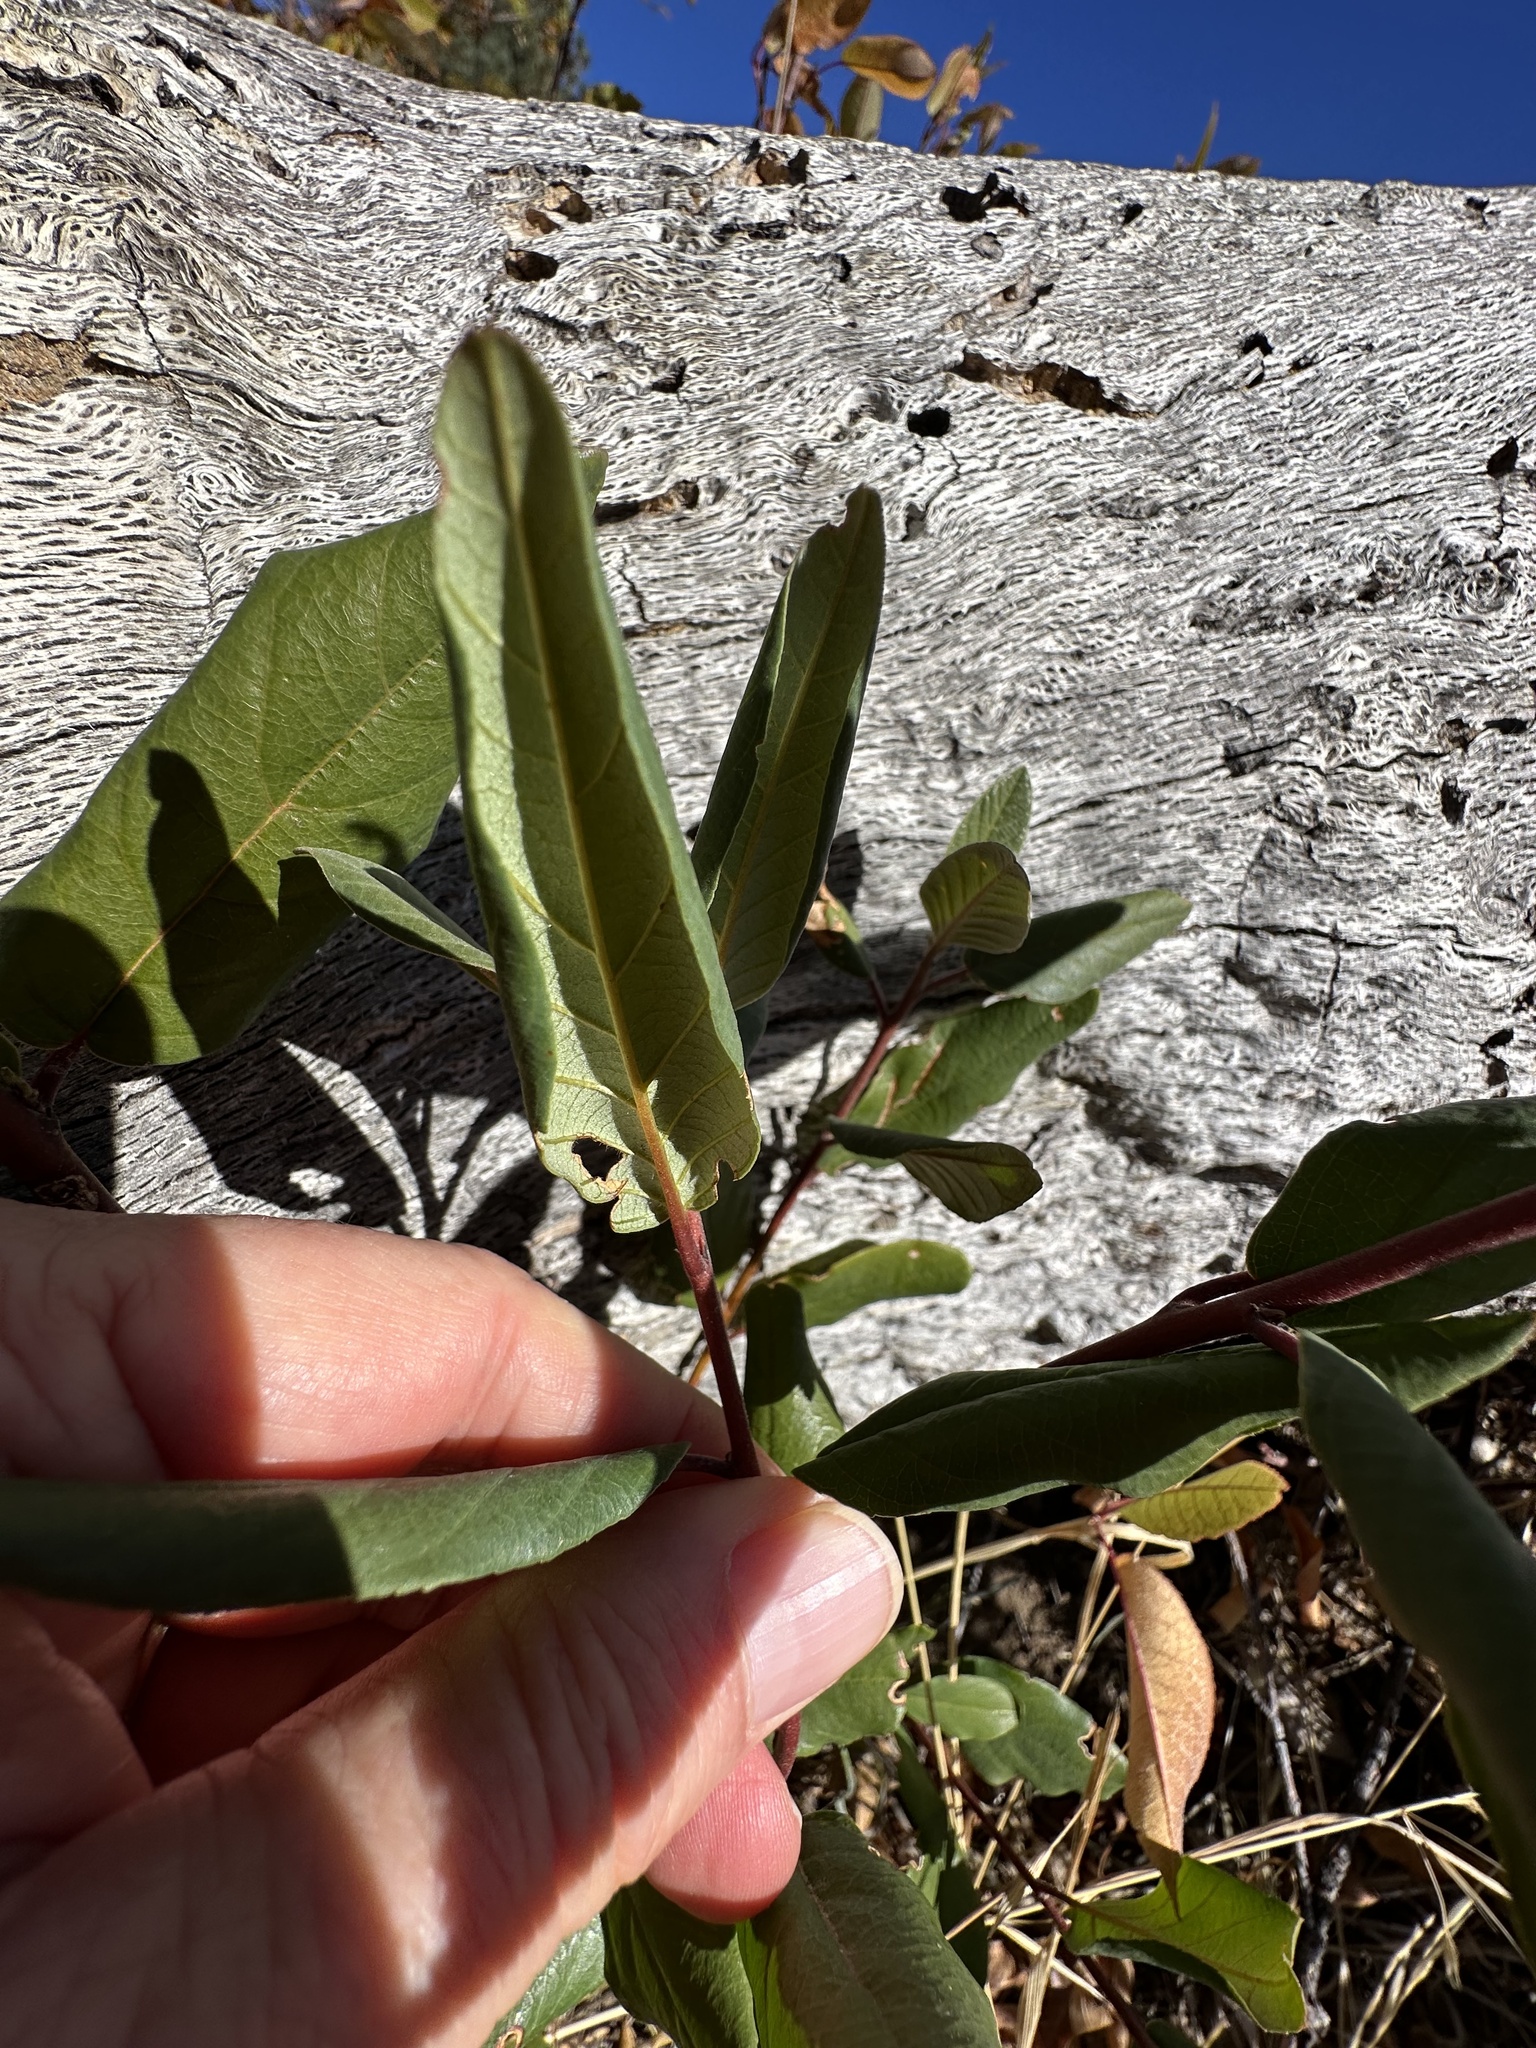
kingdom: Plantae
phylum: Tracheophyta
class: Magnoliopsida
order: Rosales
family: Rhamnaceae
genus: Frangula
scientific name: Frangula californica
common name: California buckthorn
